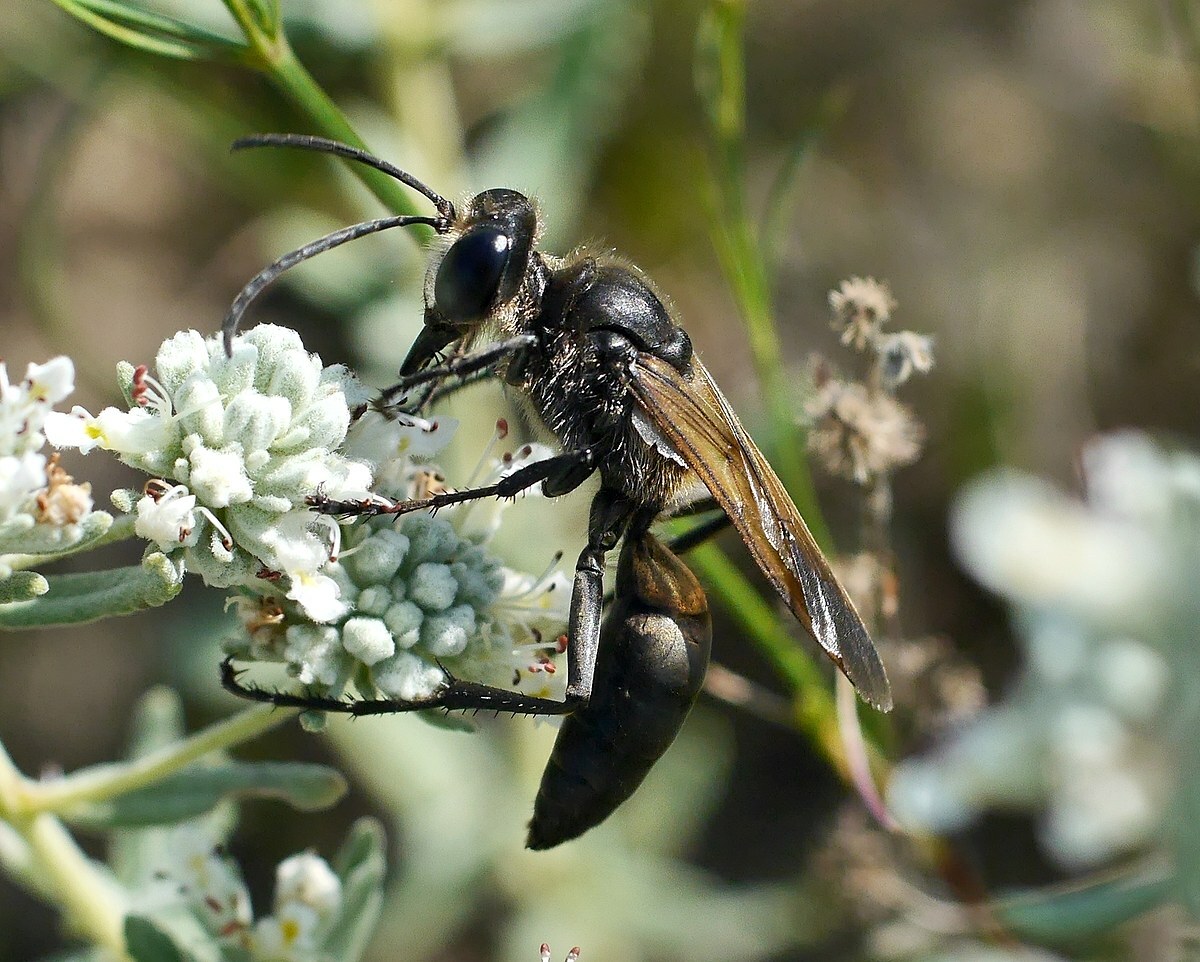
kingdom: Animalia
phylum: Arthropoda
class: Insecta
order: Hymenoptera
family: Sphecidae
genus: Sphex
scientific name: Sphex leuconotus
